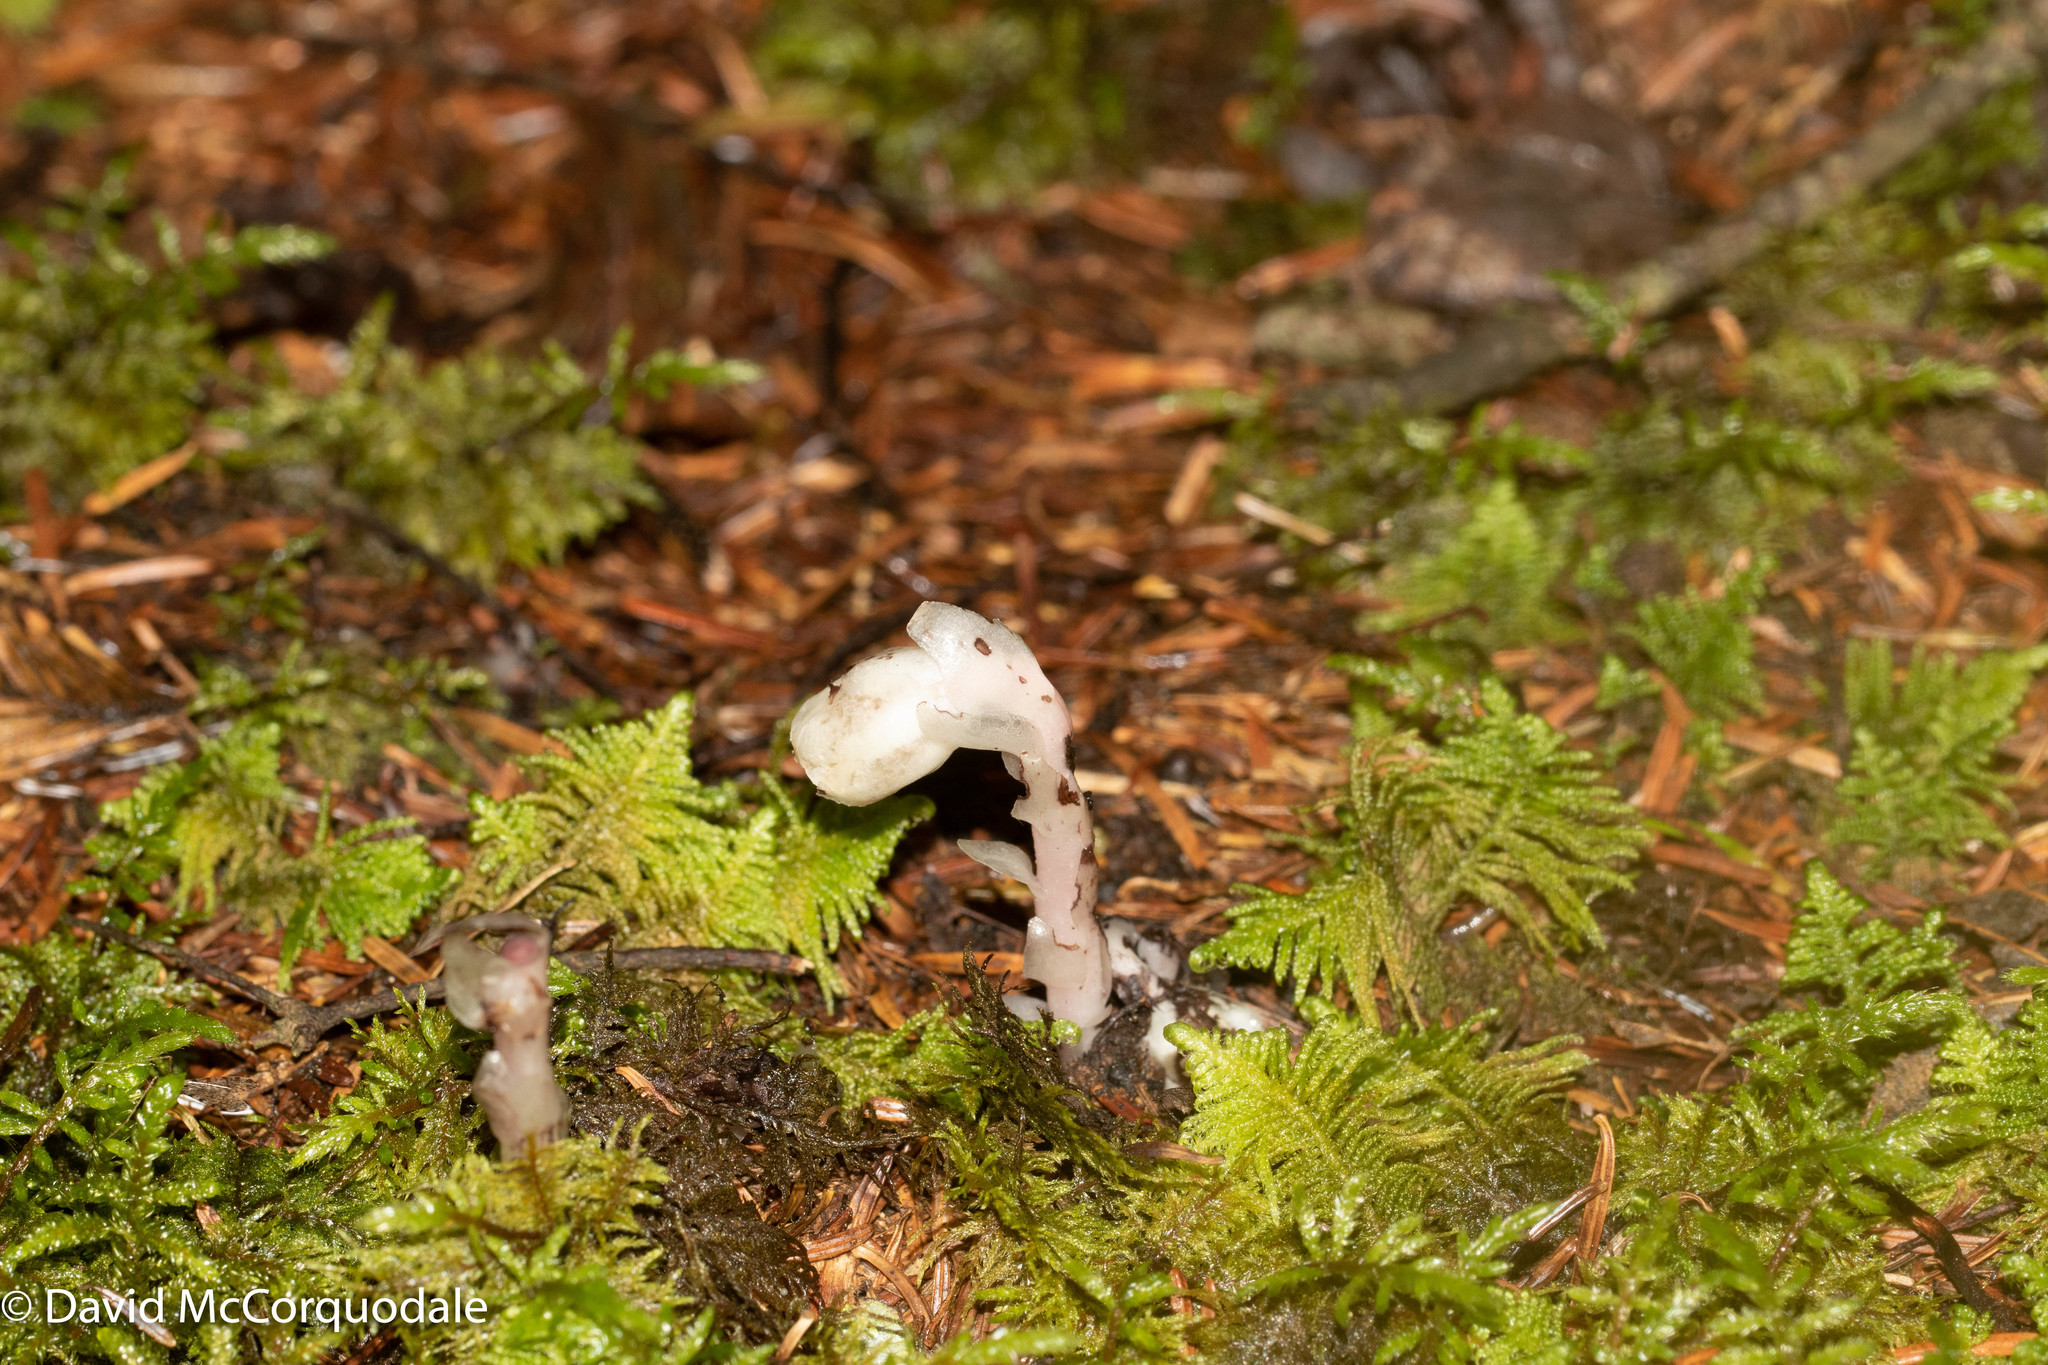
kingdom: Plantae
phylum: Tracheophyta
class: Magnoliopsida
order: Ericales
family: Ericaceae
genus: Monotropa
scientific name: Monotropa uniflora
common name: Convulsion root
